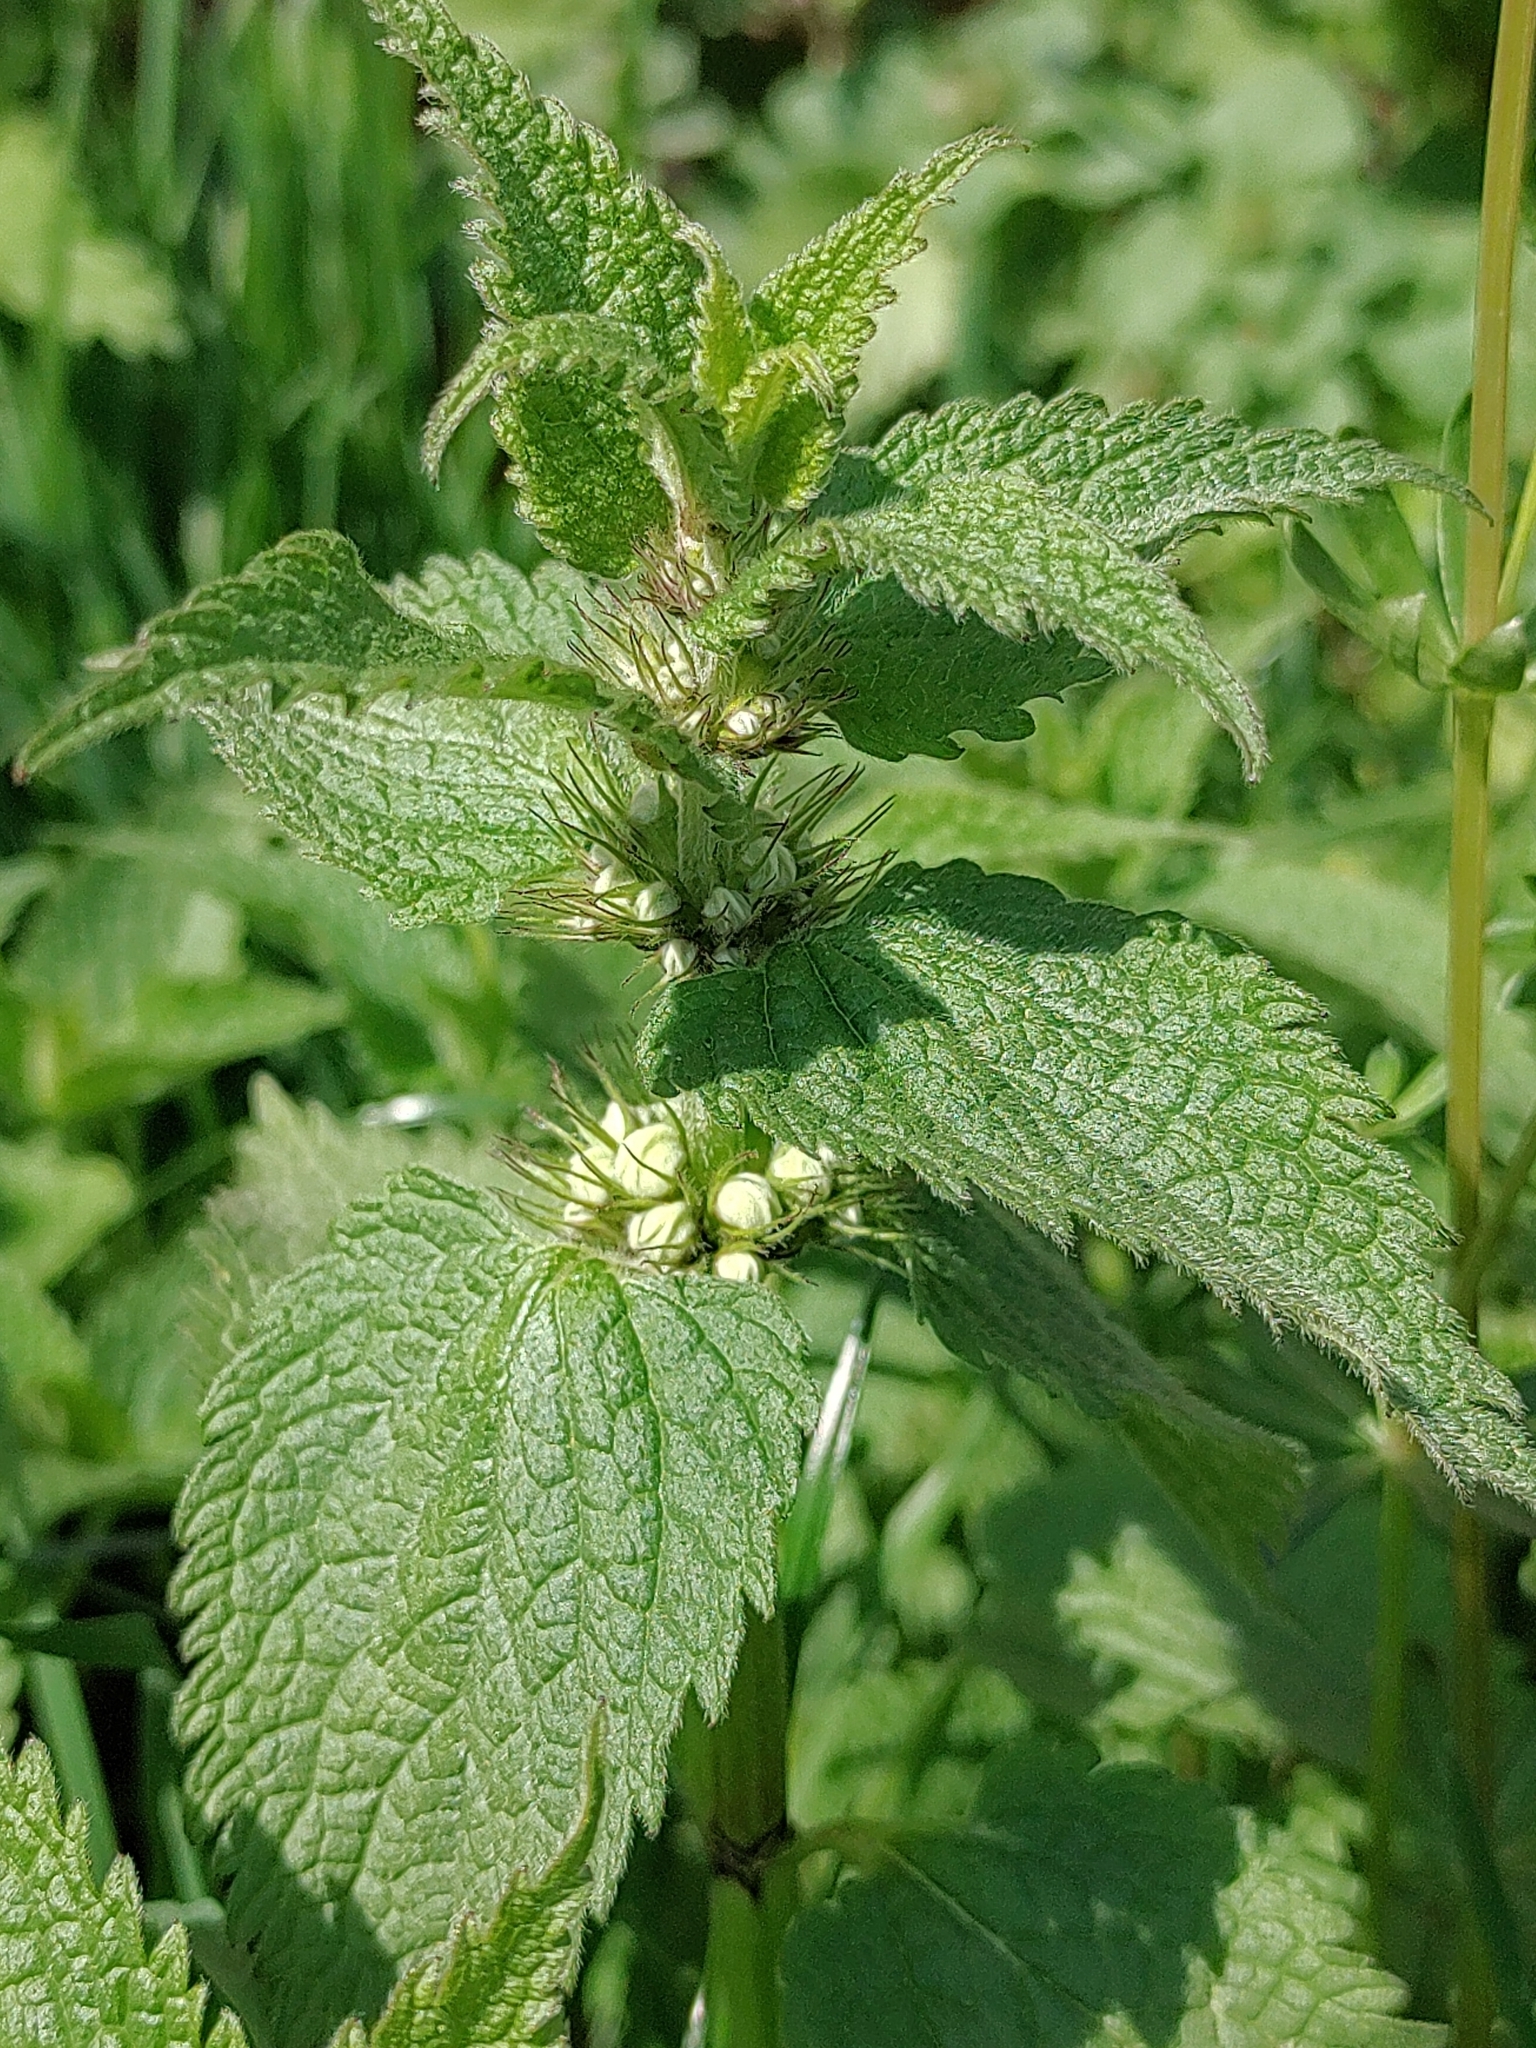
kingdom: Plantae
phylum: Tracheophyta
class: Magnoliopsida
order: Lamiales
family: Lamiaceae
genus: Lamium
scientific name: Lamium album
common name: White dead-nettle
